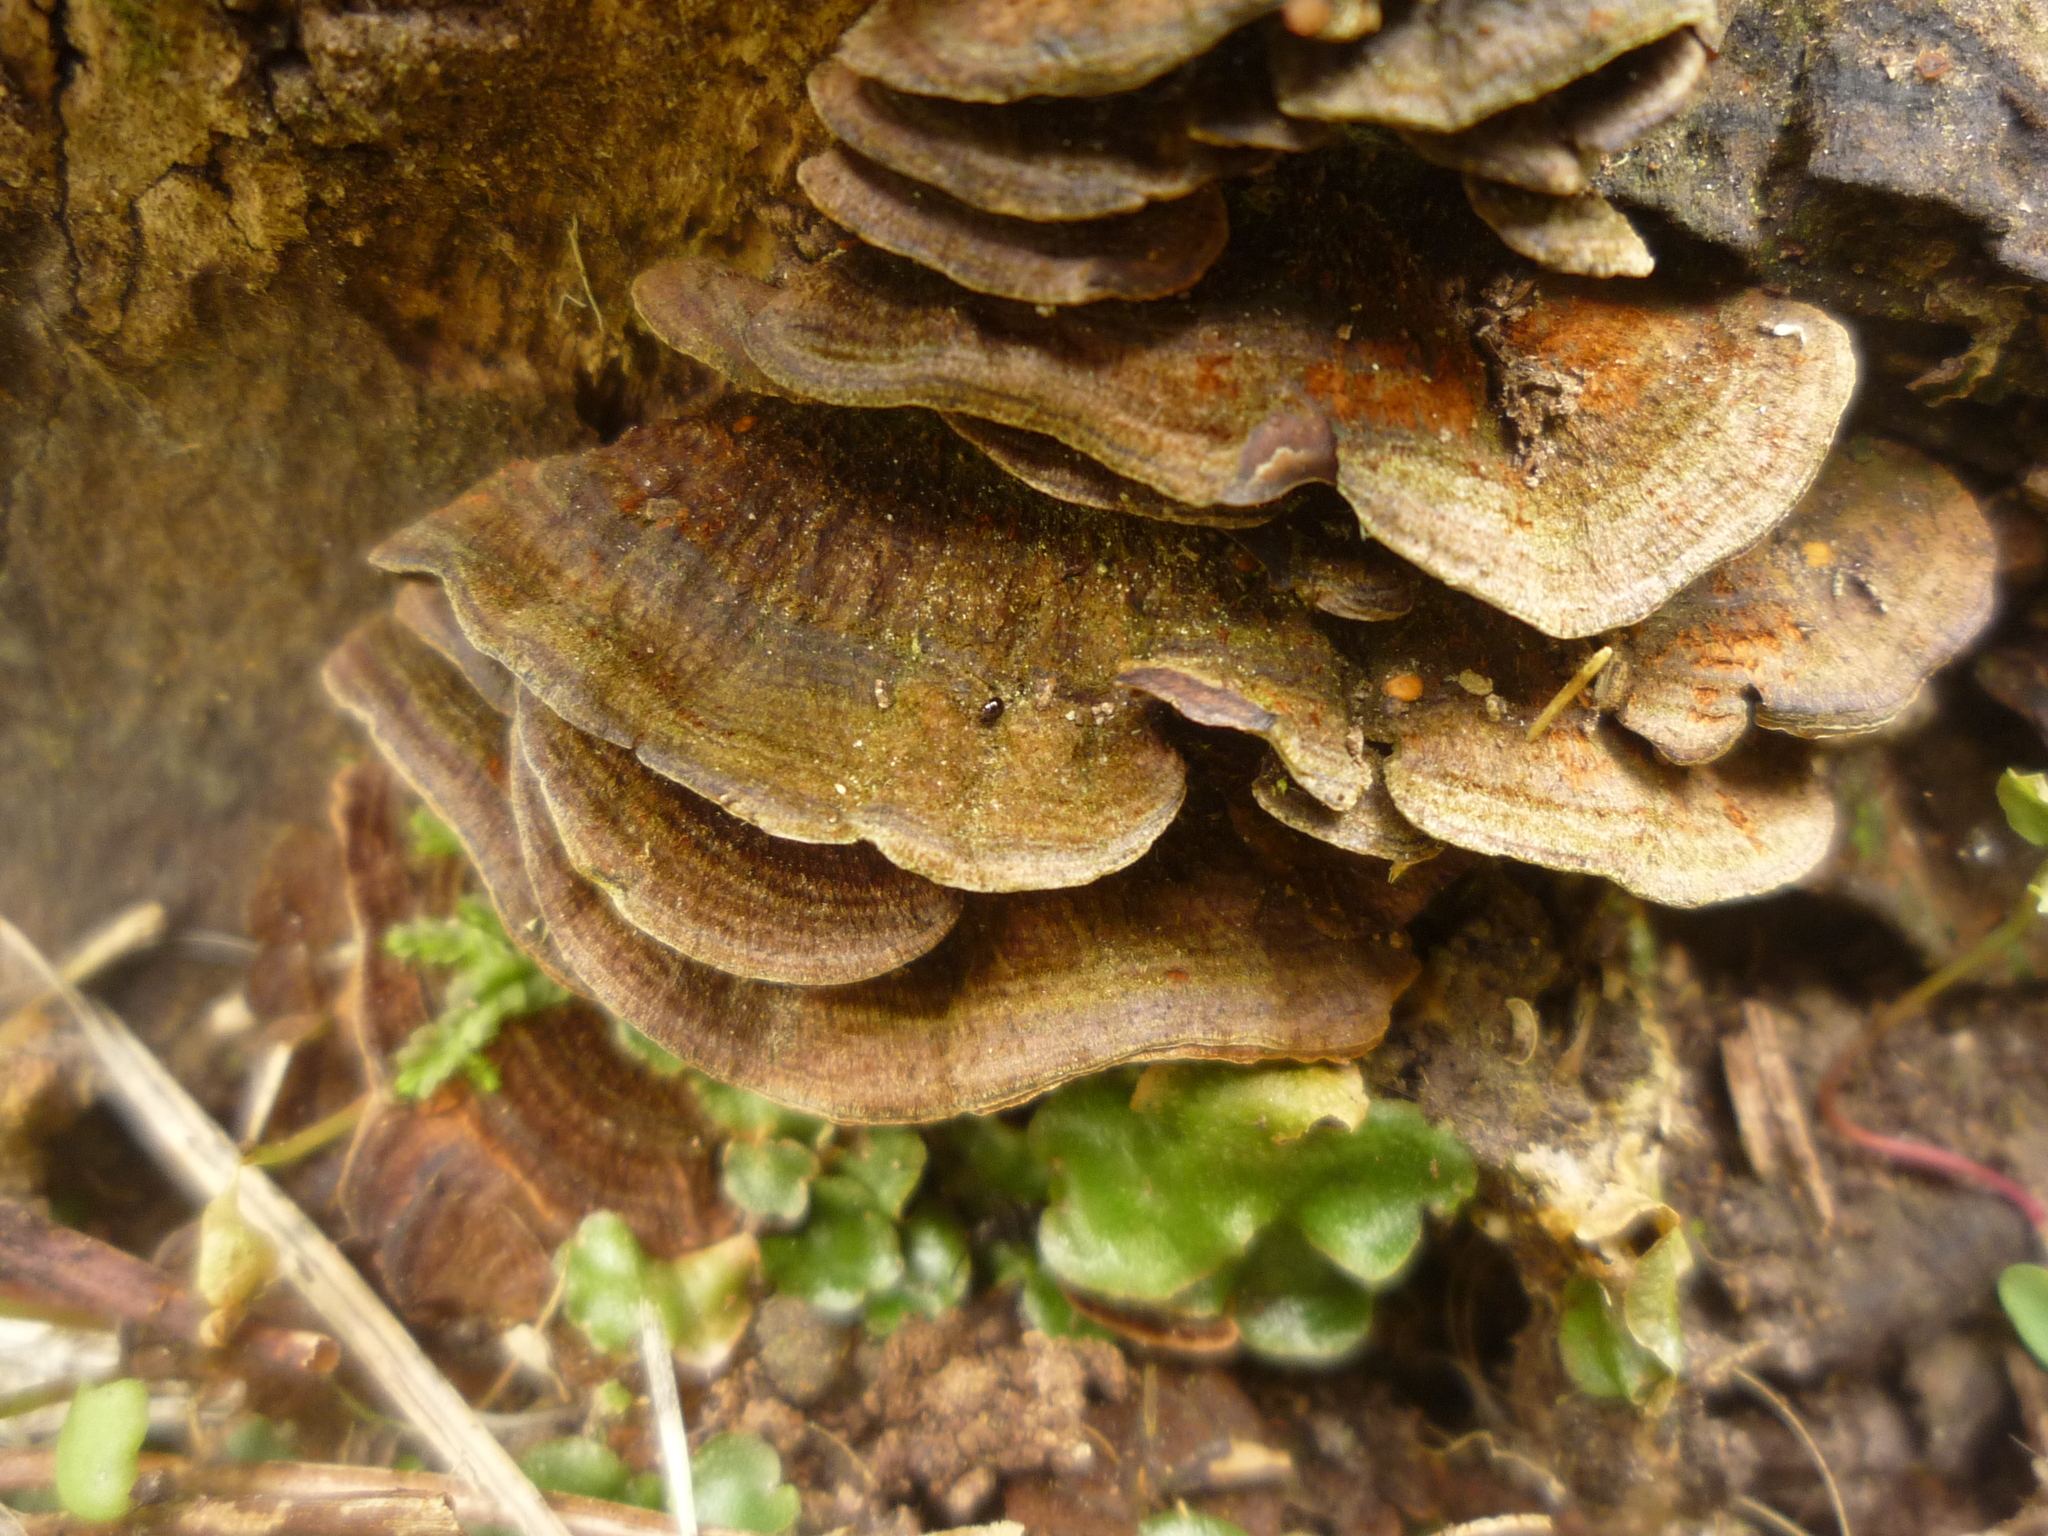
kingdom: Fungi
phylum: Basidiomycota
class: Agaricomycetes
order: Hymenochaetales
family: Hymenochaetaceae
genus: Hymenochaete
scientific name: Hymenochaete microcycla
